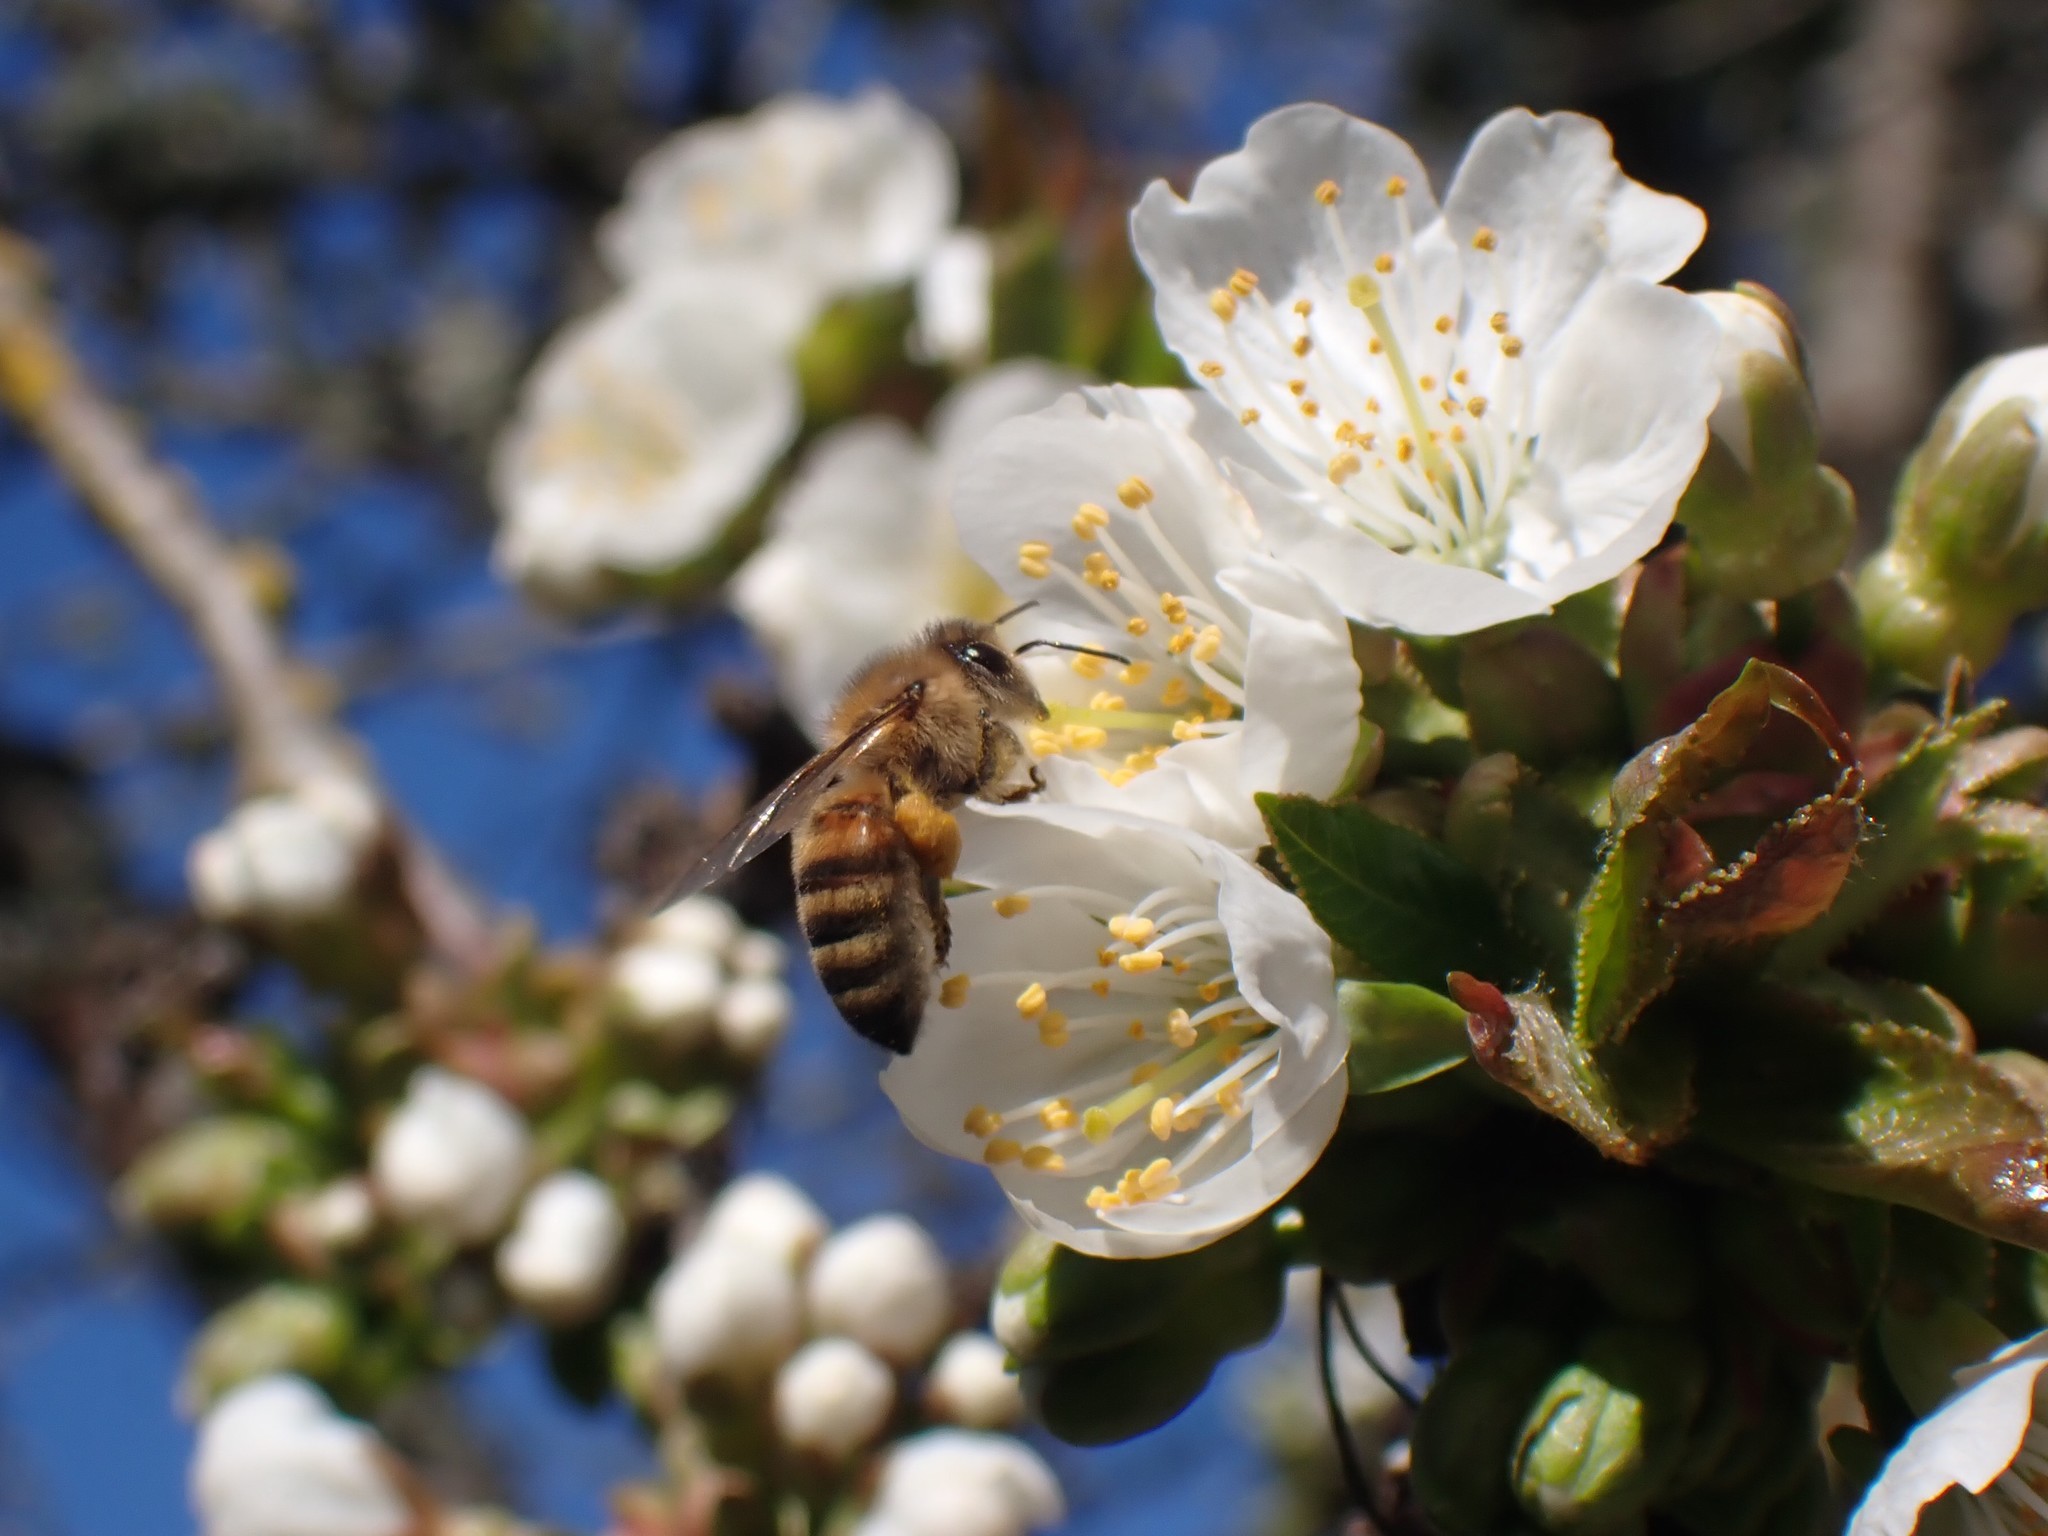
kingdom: Animalia
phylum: Arthropoda
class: Insecta
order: Hymenoptera
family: Apidae
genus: Apis
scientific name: Apis mellifera
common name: Honey bee
